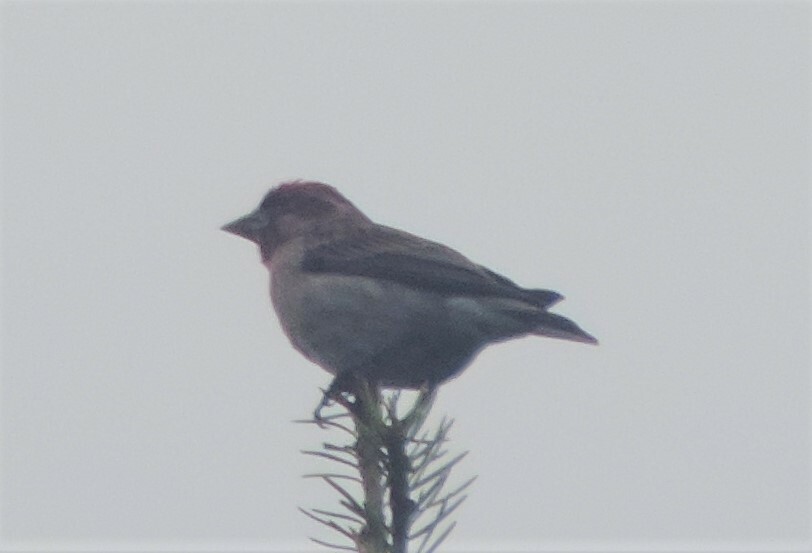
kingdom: Animalia
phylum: Chordata
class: Aves
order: Passeriformes
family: Fringillidae
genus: Haemorhous
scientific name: Haemorhous cassinii
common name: Cassin's finch
